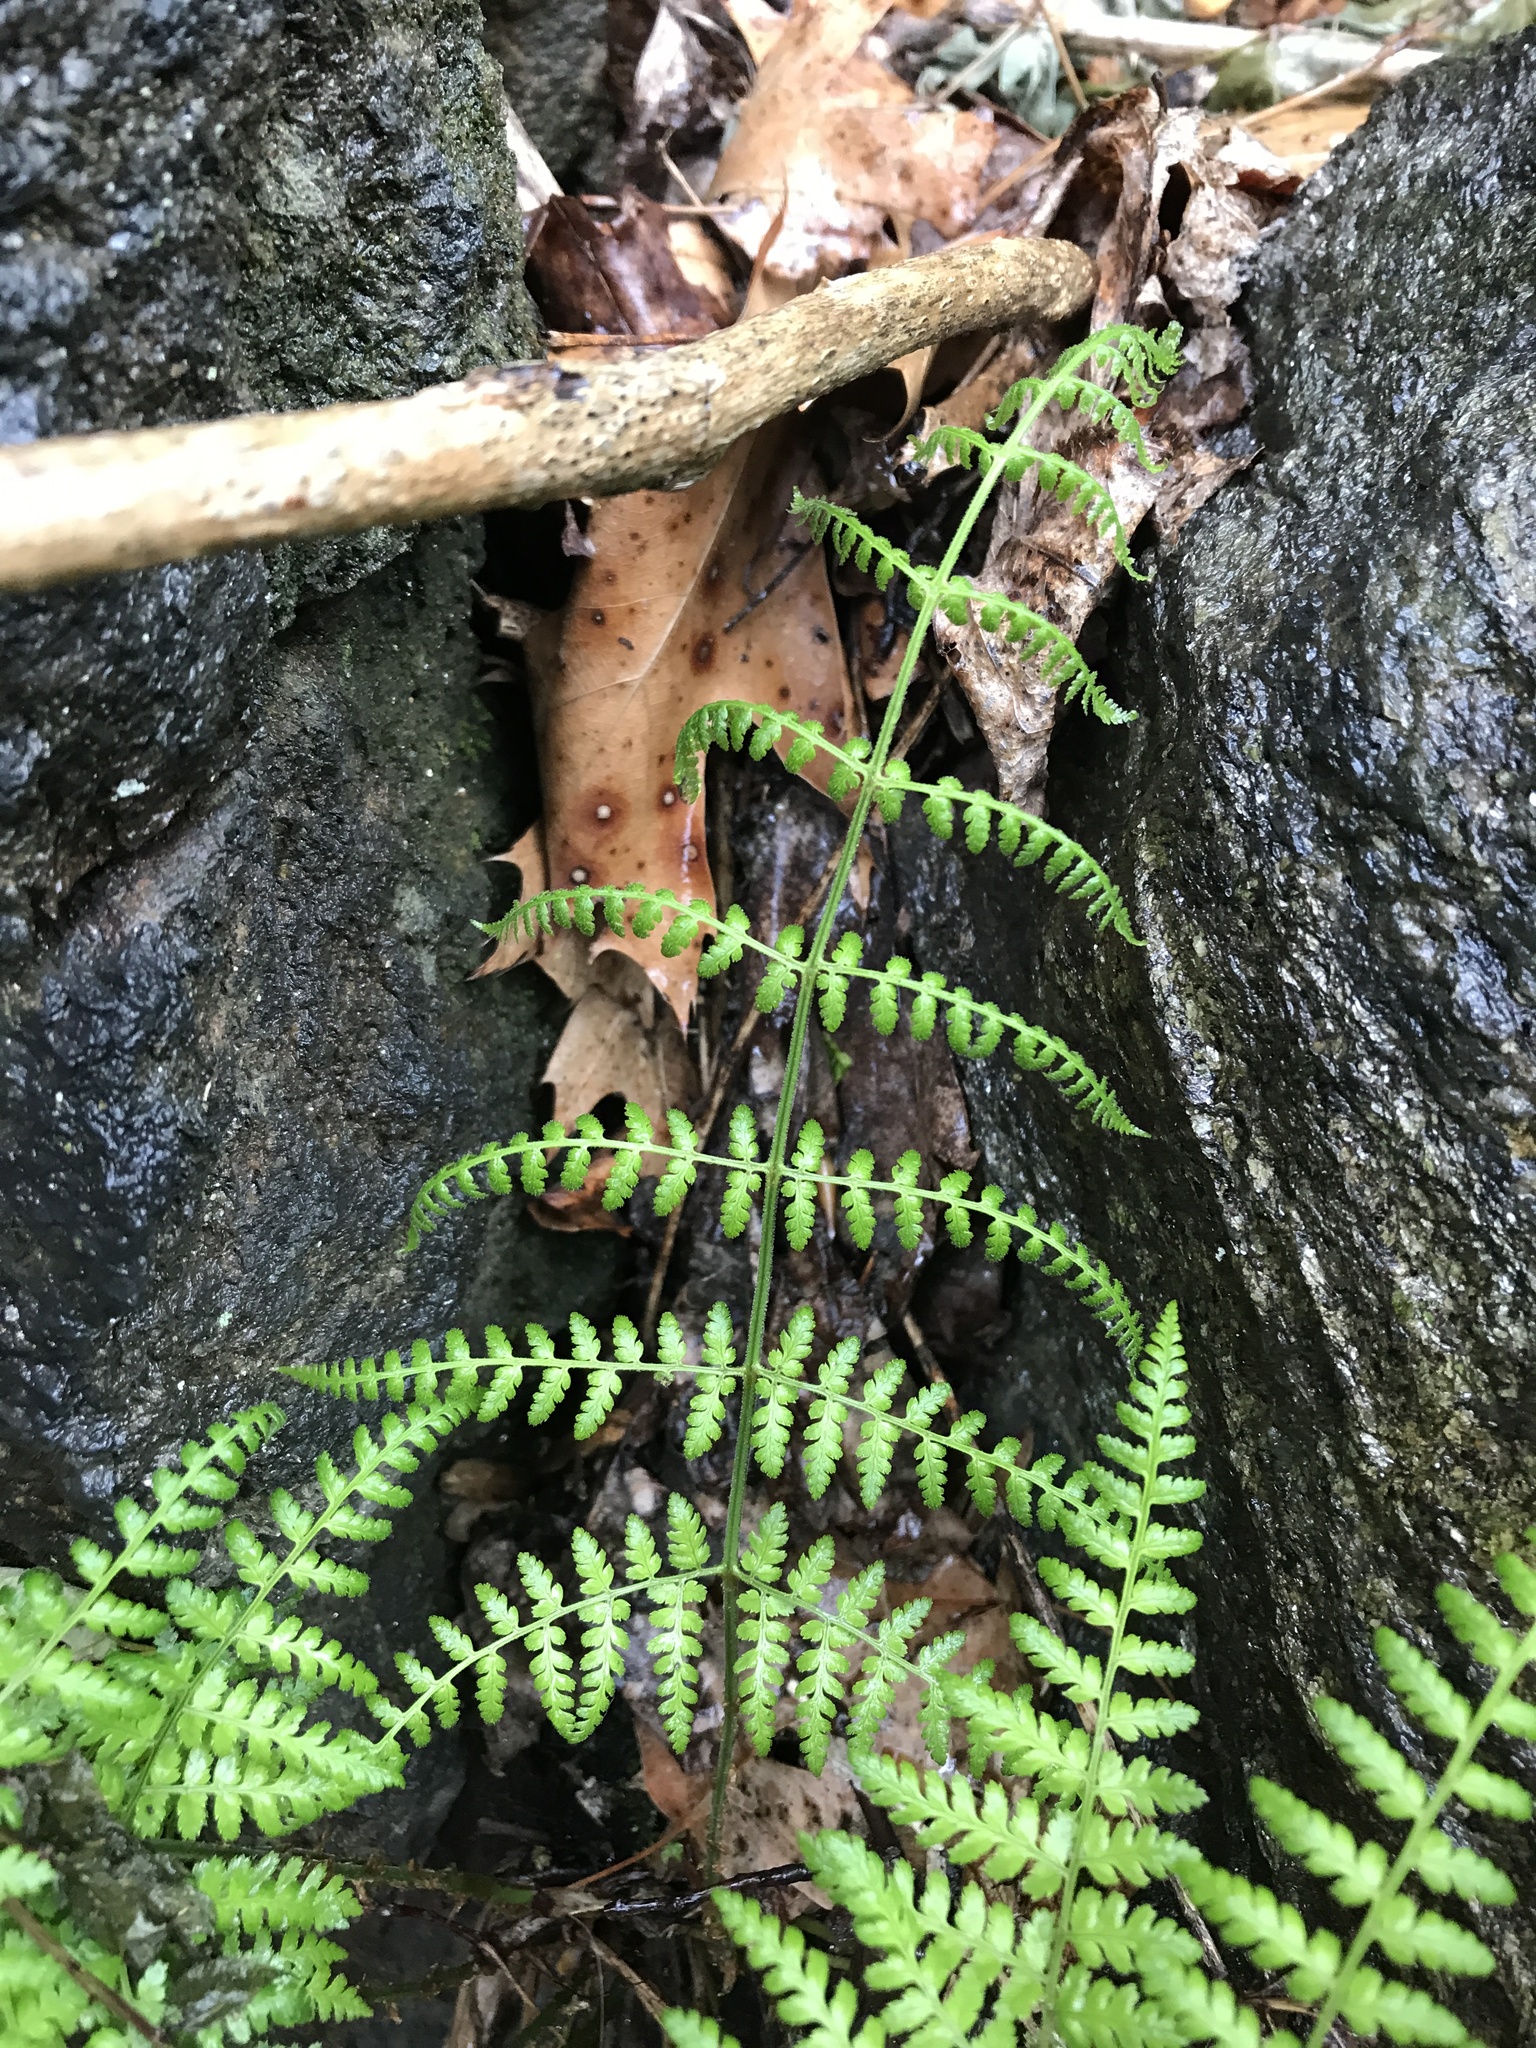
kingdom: Plantae
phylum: Tracheophyta
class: Polypodiopsida
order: Polypodiales
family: Dryopteridaceae
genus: Dryopteris
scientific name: Dryopteris intermedia
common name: Evergreen wood fern
